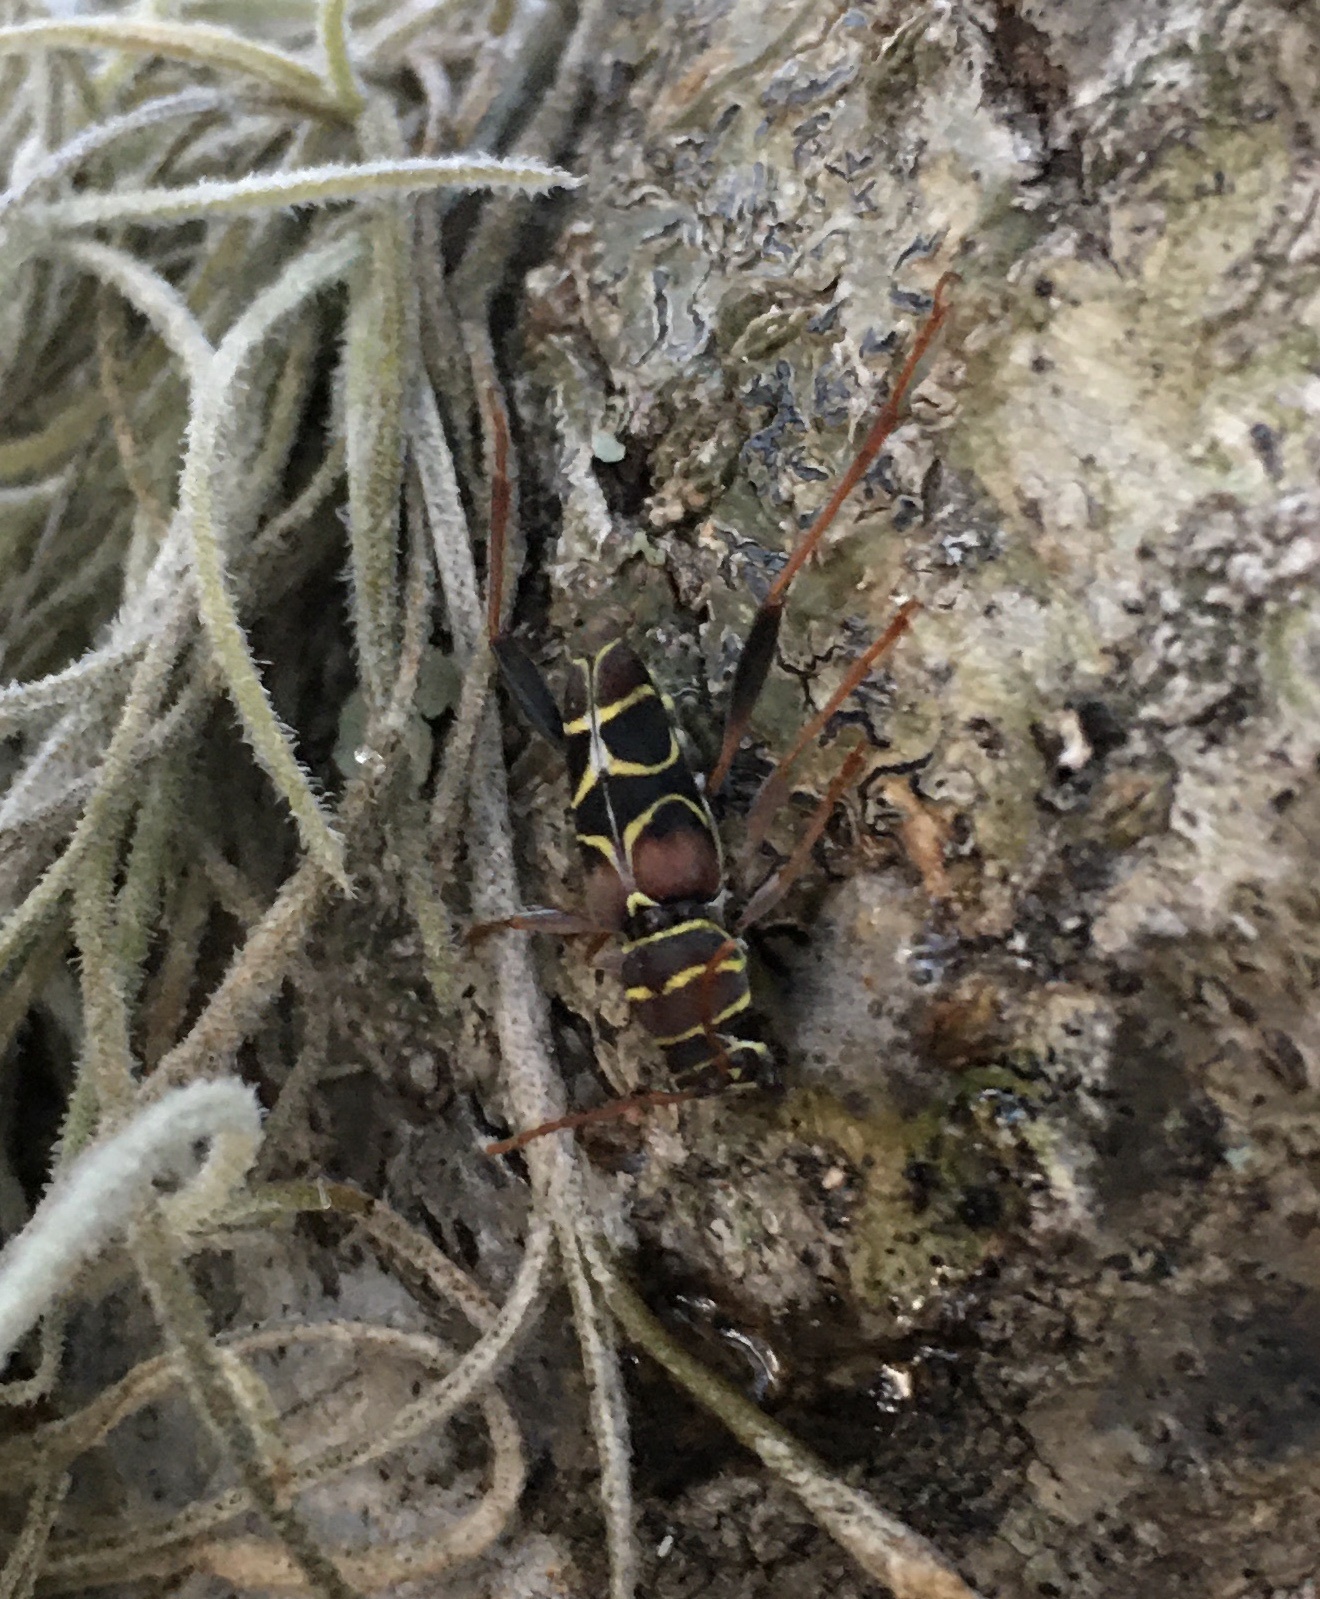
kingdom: Animalia
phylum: Arthropoda
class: Insecta
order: Coleoptera
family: Cerambycidae
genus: Neoclytus
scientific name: Neoclytus scutellaris
